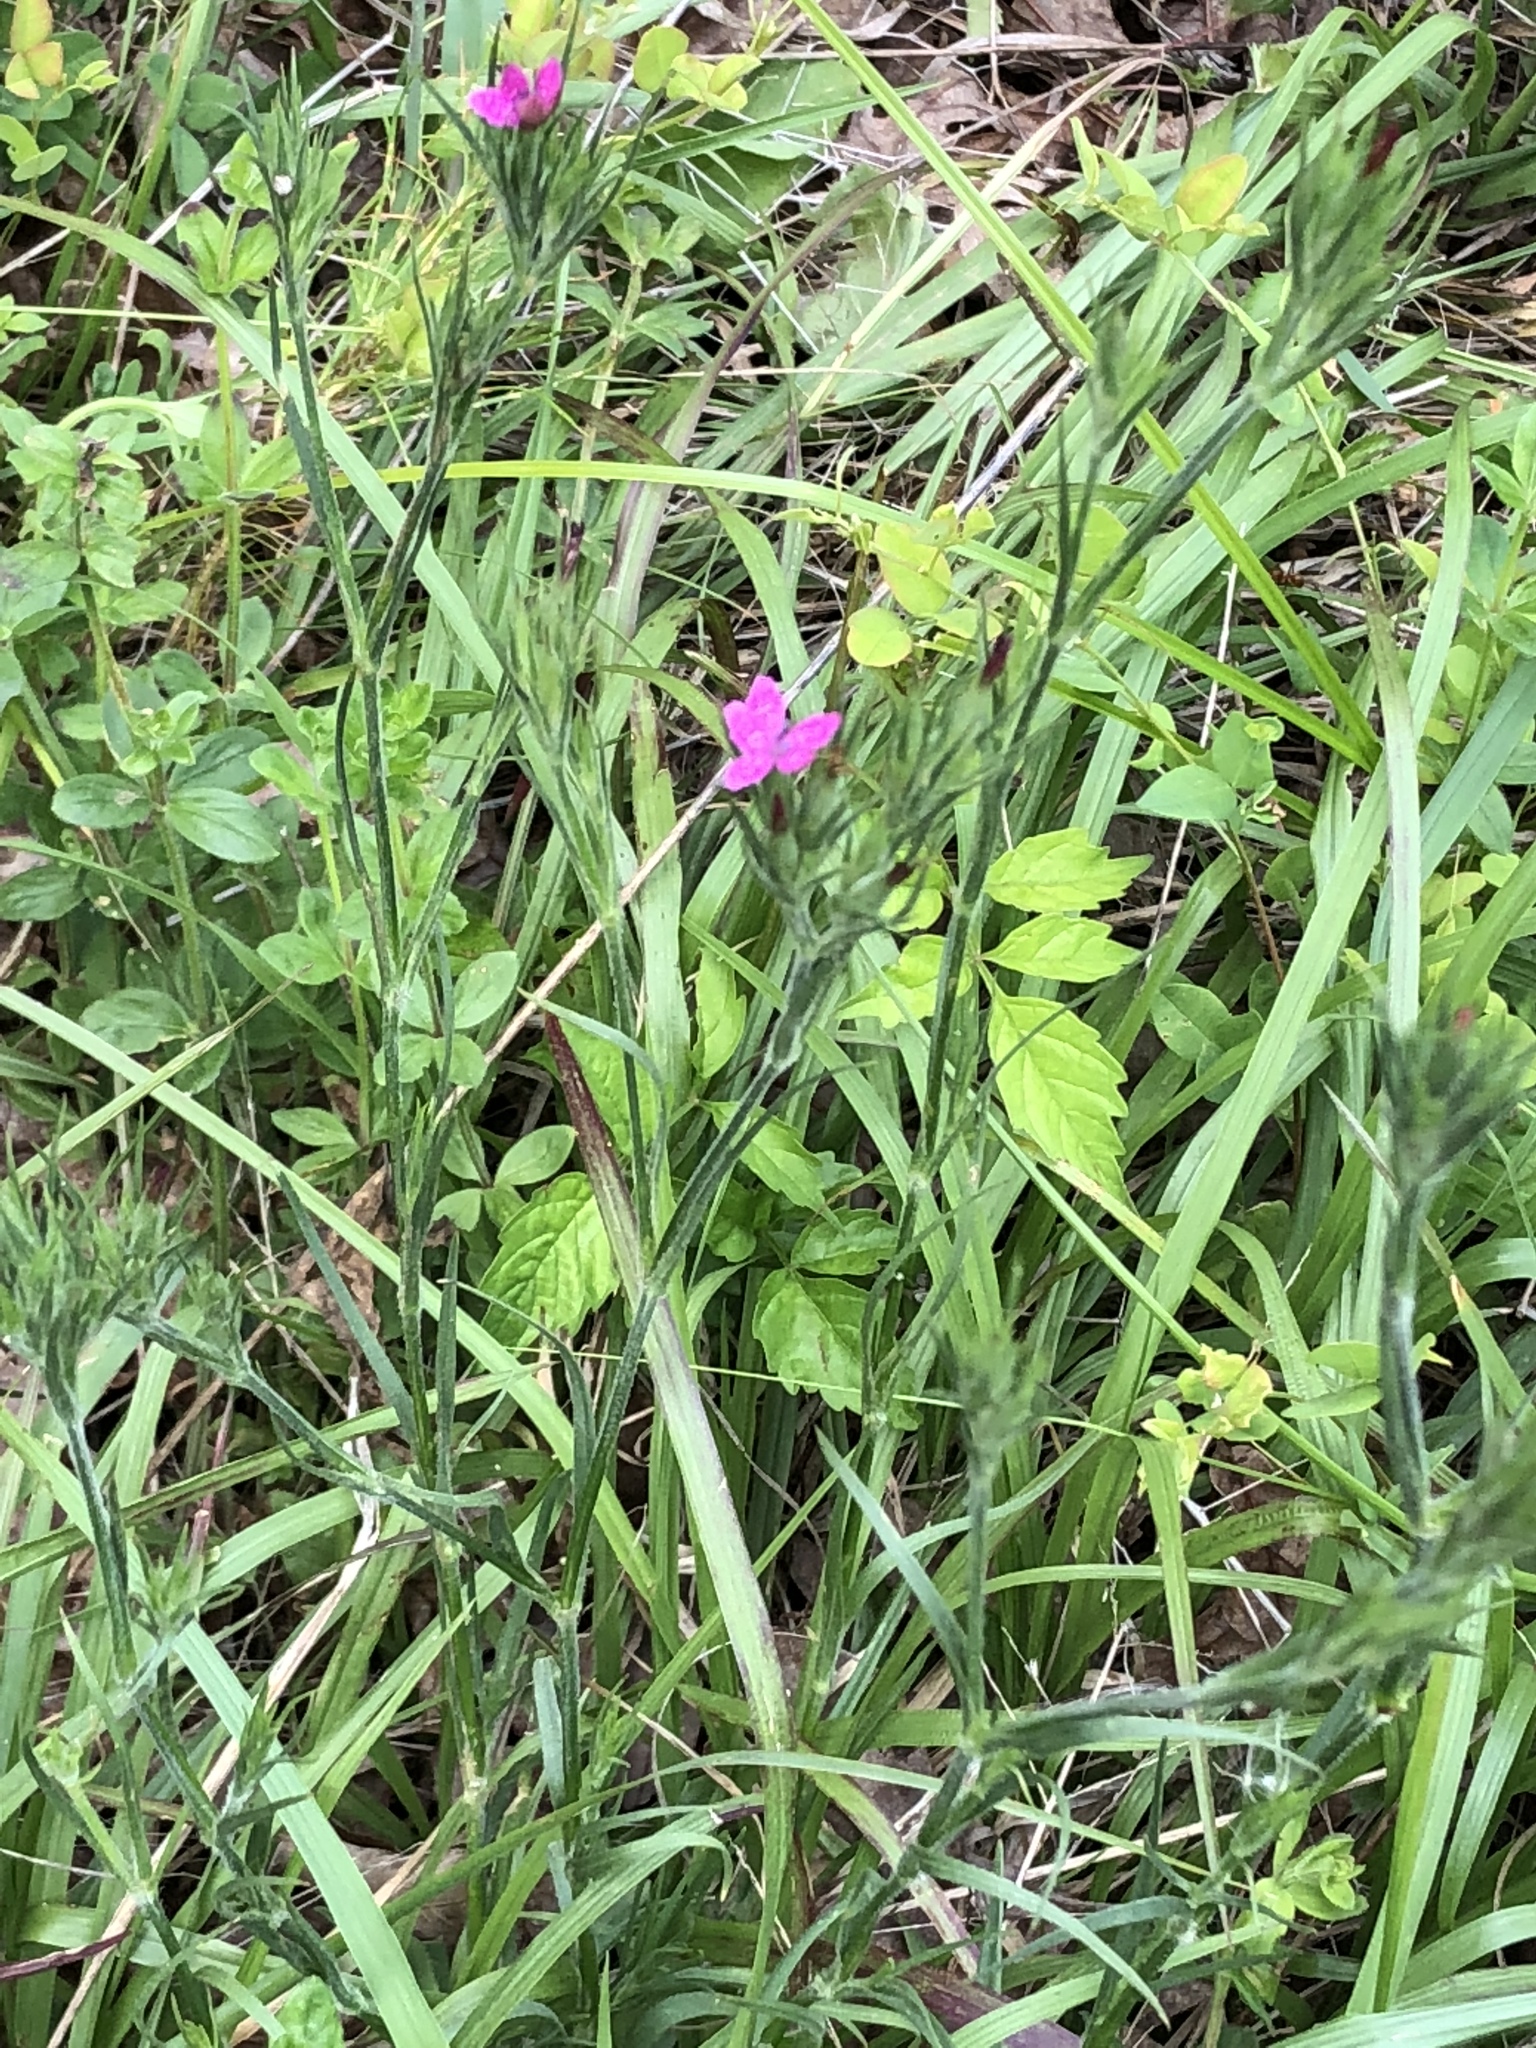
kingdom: Plantae
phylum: Tracheophyta
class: Magnoliopsida
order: Caryophyllales
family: Caryophyllaceae
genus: Dianthus
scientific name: Dianthus armeria
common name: Deptford pink
